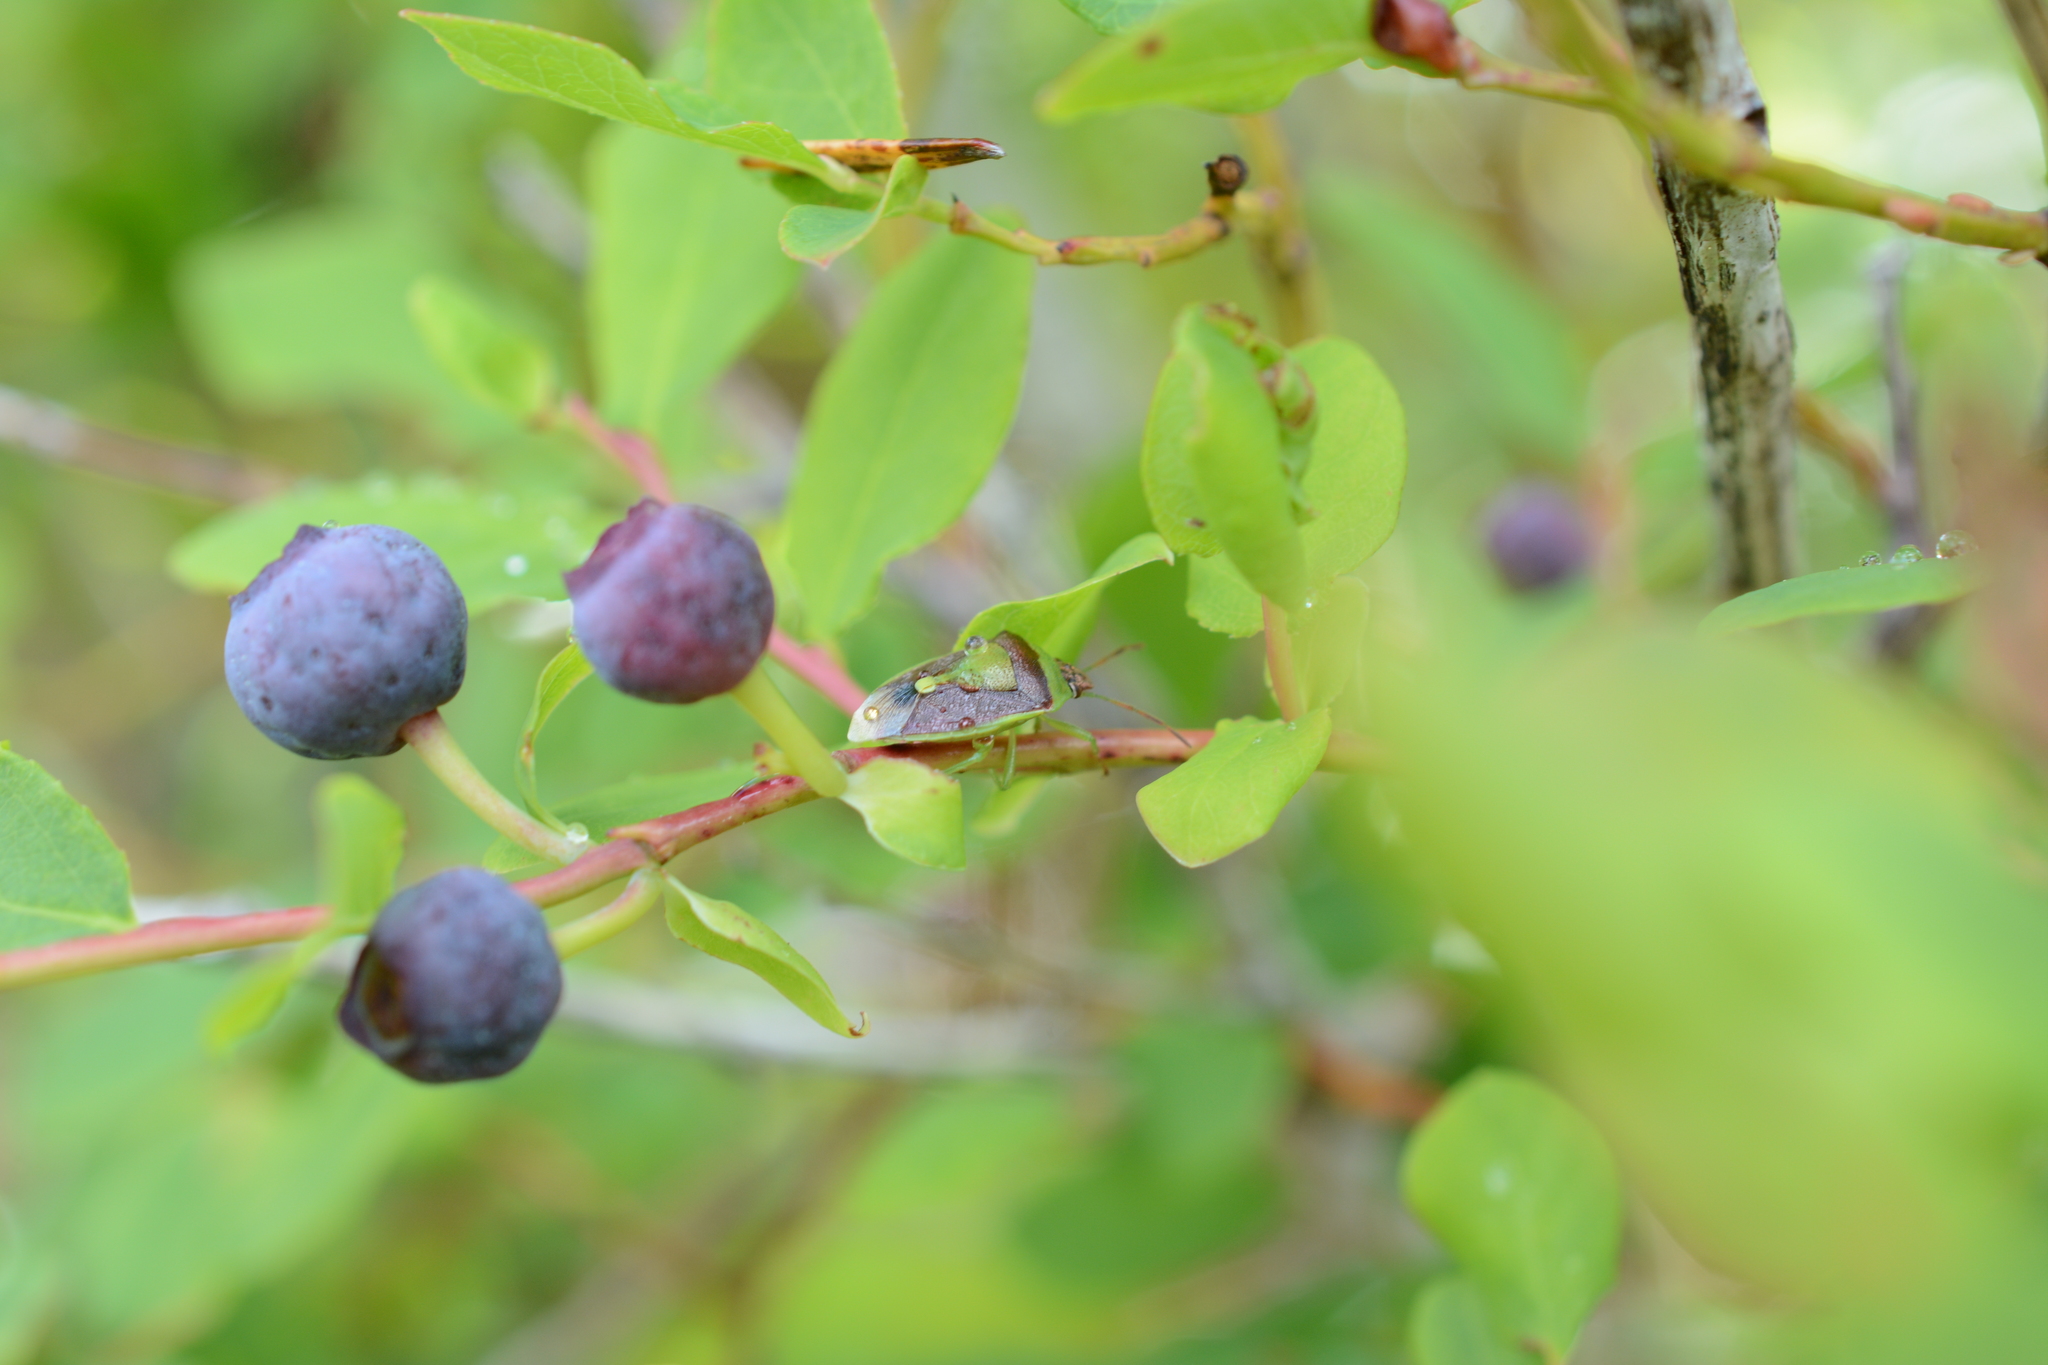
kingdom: Animalia
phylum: Arthropoda
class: Insecta
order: Hemiptera
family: Pentatomidae
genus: Banasa
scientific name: Banasa dimidiata
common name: Green burgundy stink bug
